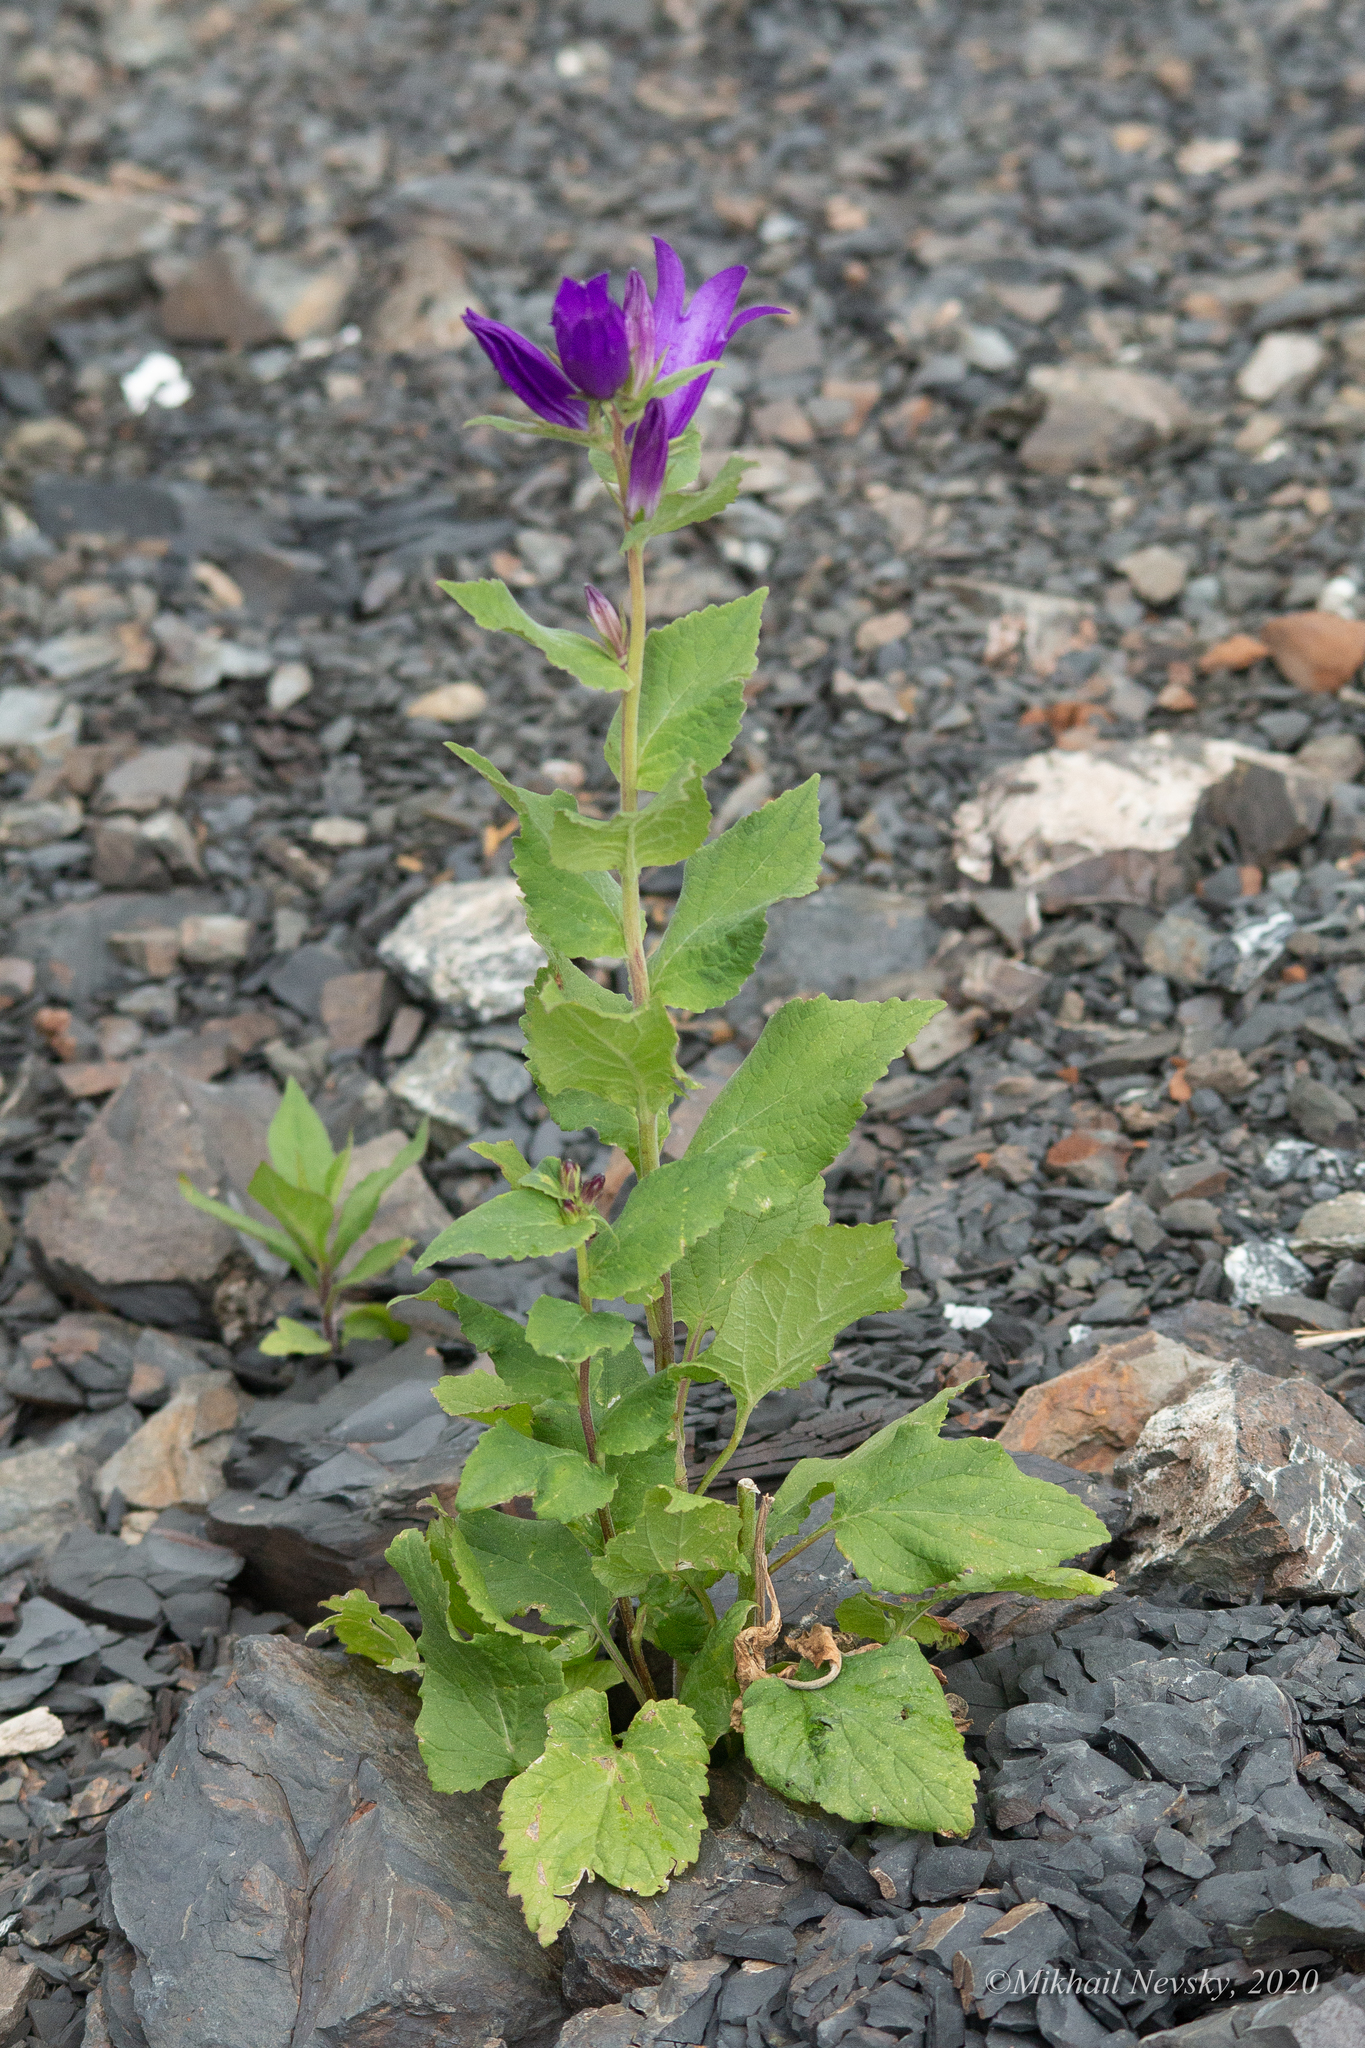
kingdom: Plantae
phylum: Tracheophyta
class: Magnoliopsida
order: Asterales
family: Campanulaceae
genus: Campanula
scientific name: Campanula latifolia
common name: Giant bellflower
